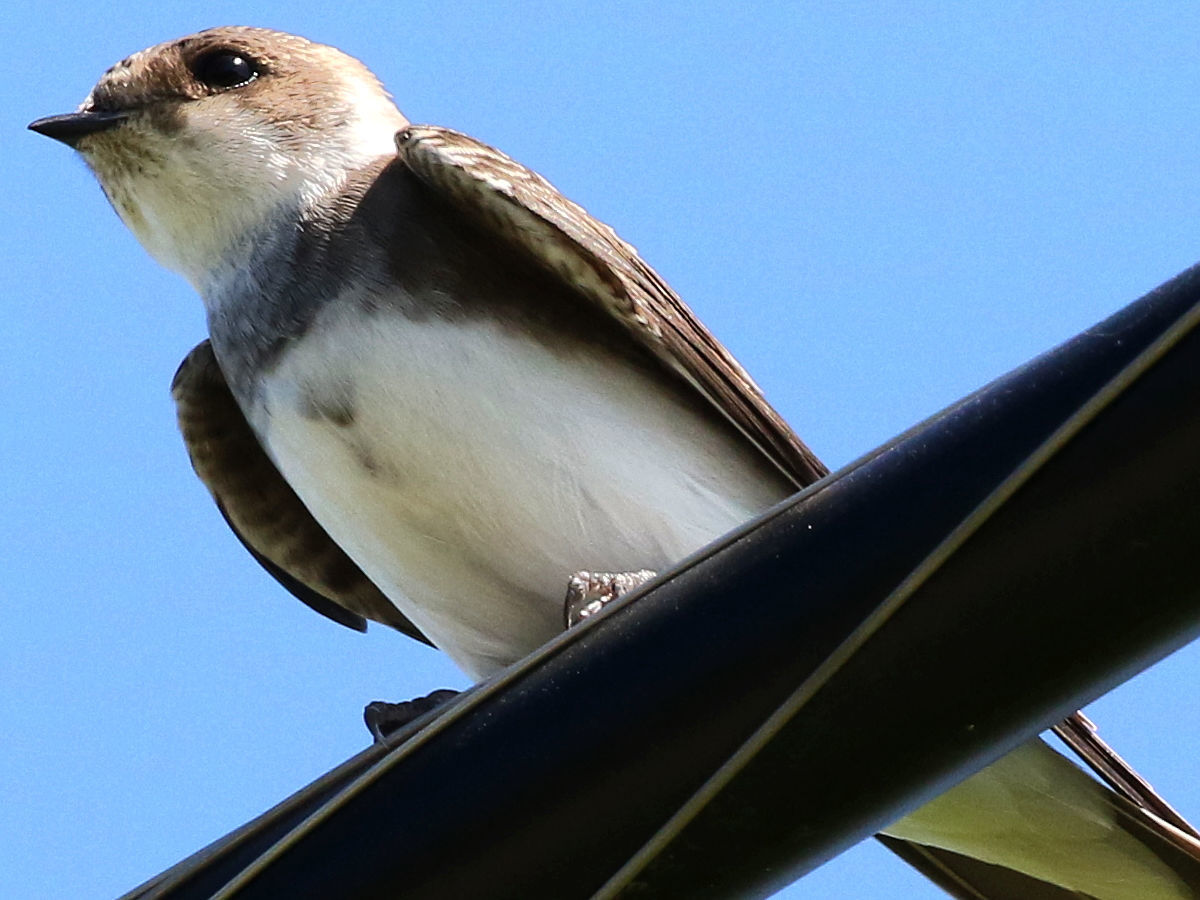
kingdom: Animalia
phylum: Chordata
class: Aves
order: Passeriformes
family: Hirundinidae
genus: Riparia
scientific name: Riparia riparia
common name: Sand martin
